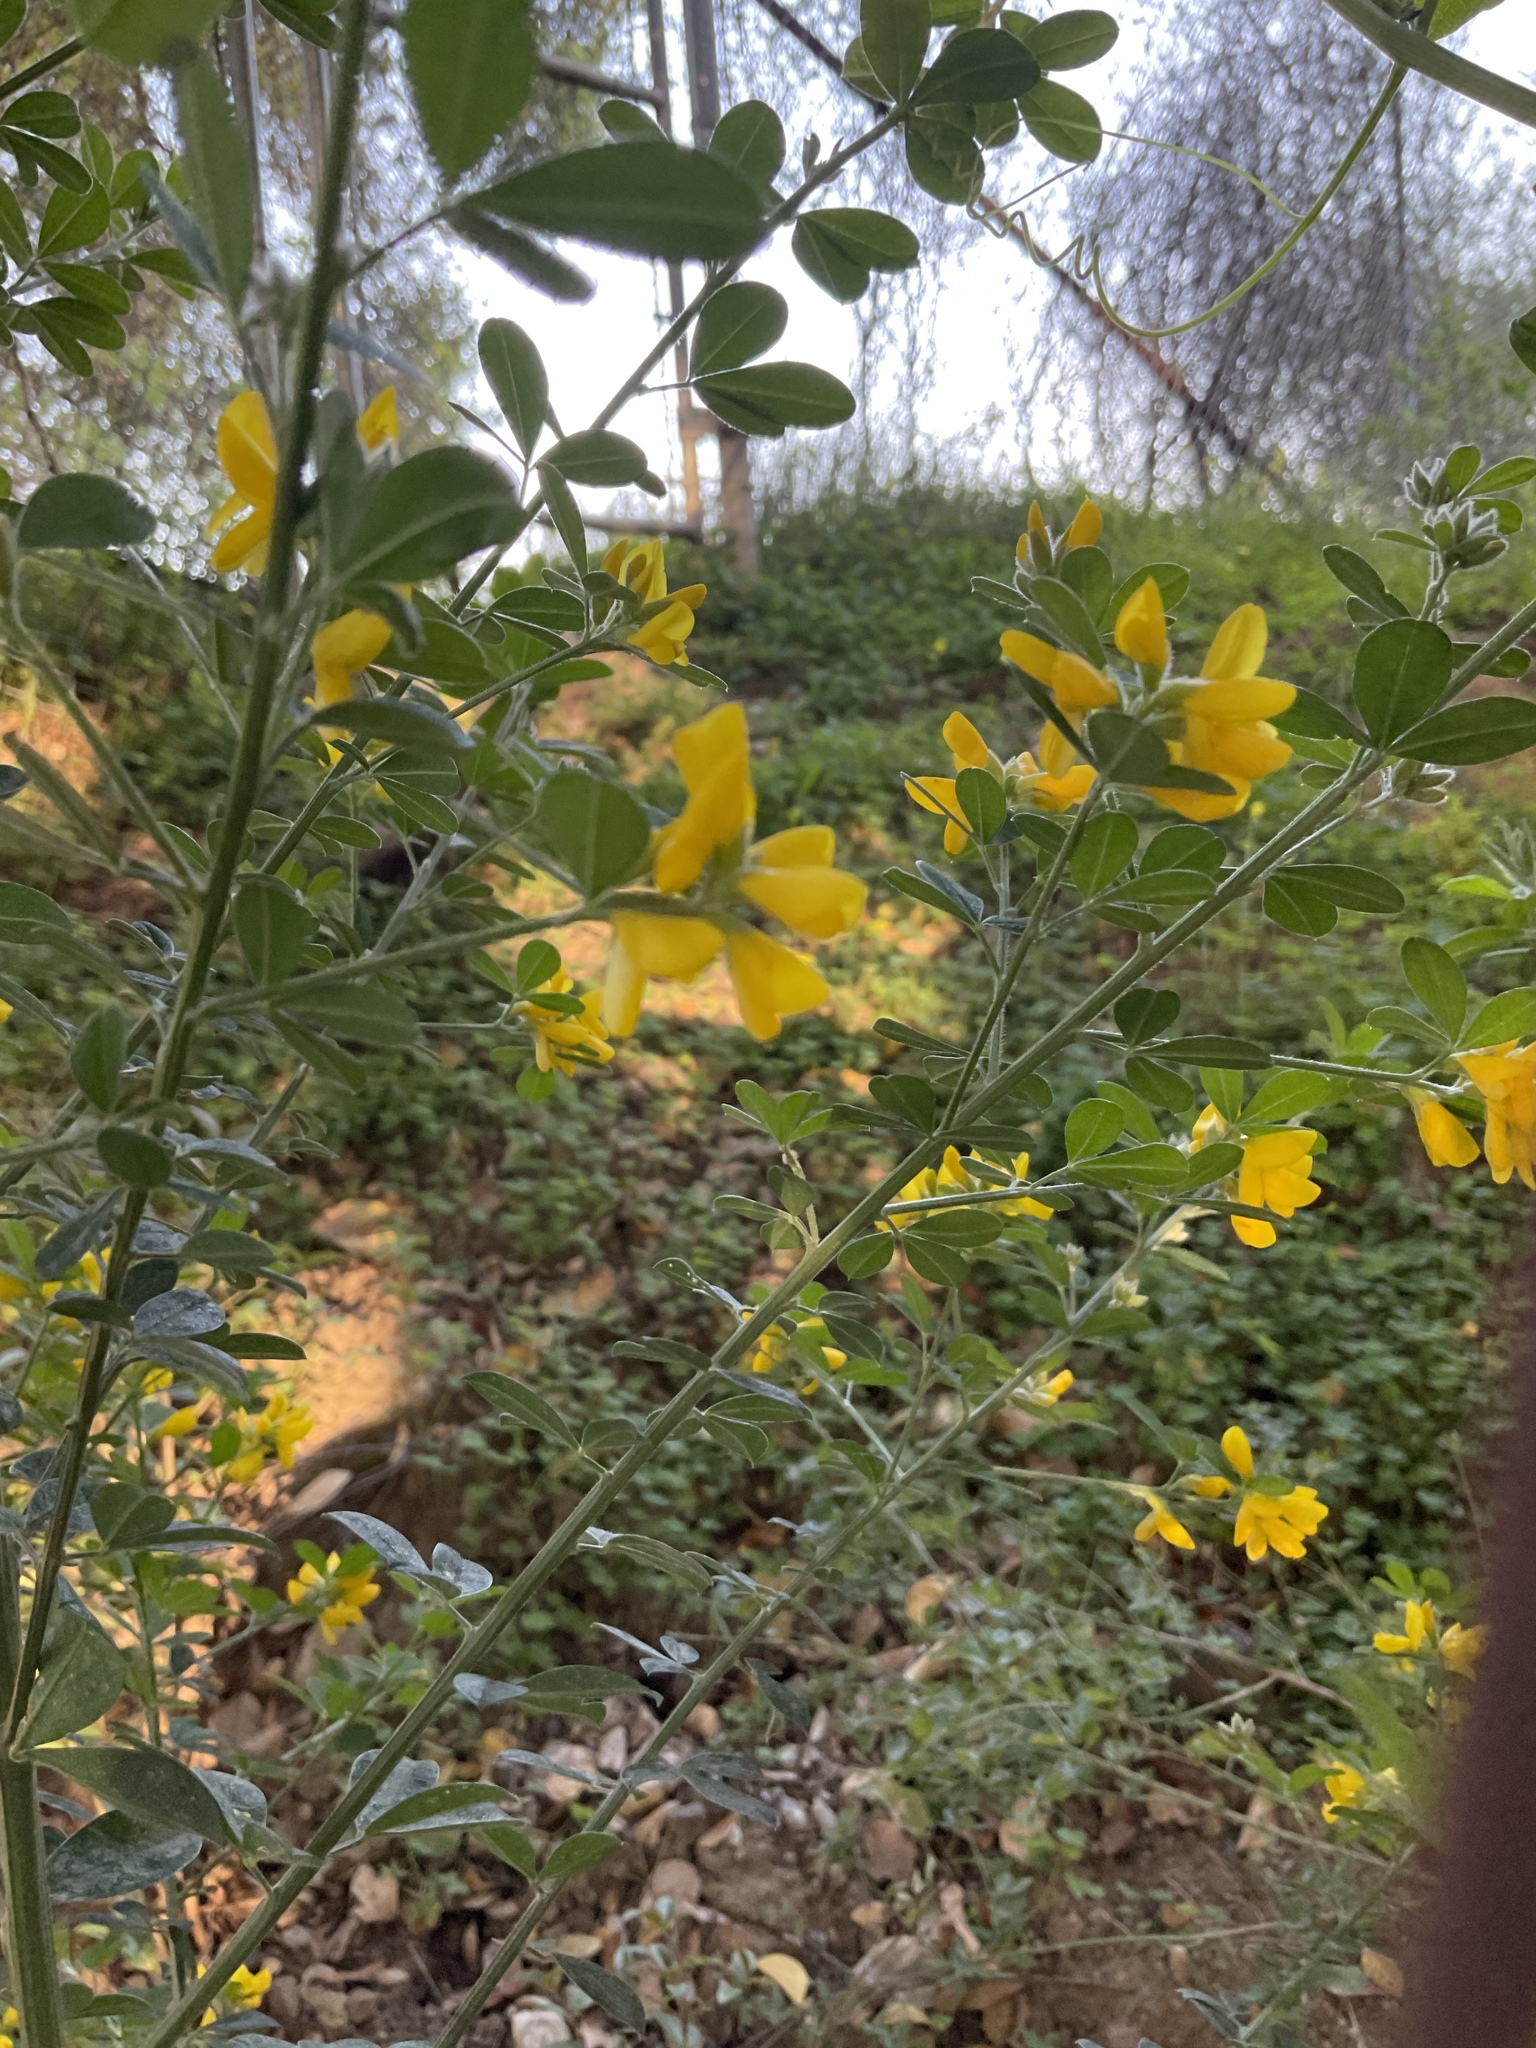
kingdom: Plantae
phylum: Tracheophyta
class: Magnoliopsida
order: Fabales
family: Fabaceae
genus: Genista
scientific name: Genista monspessulana
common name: Montpellier broom
